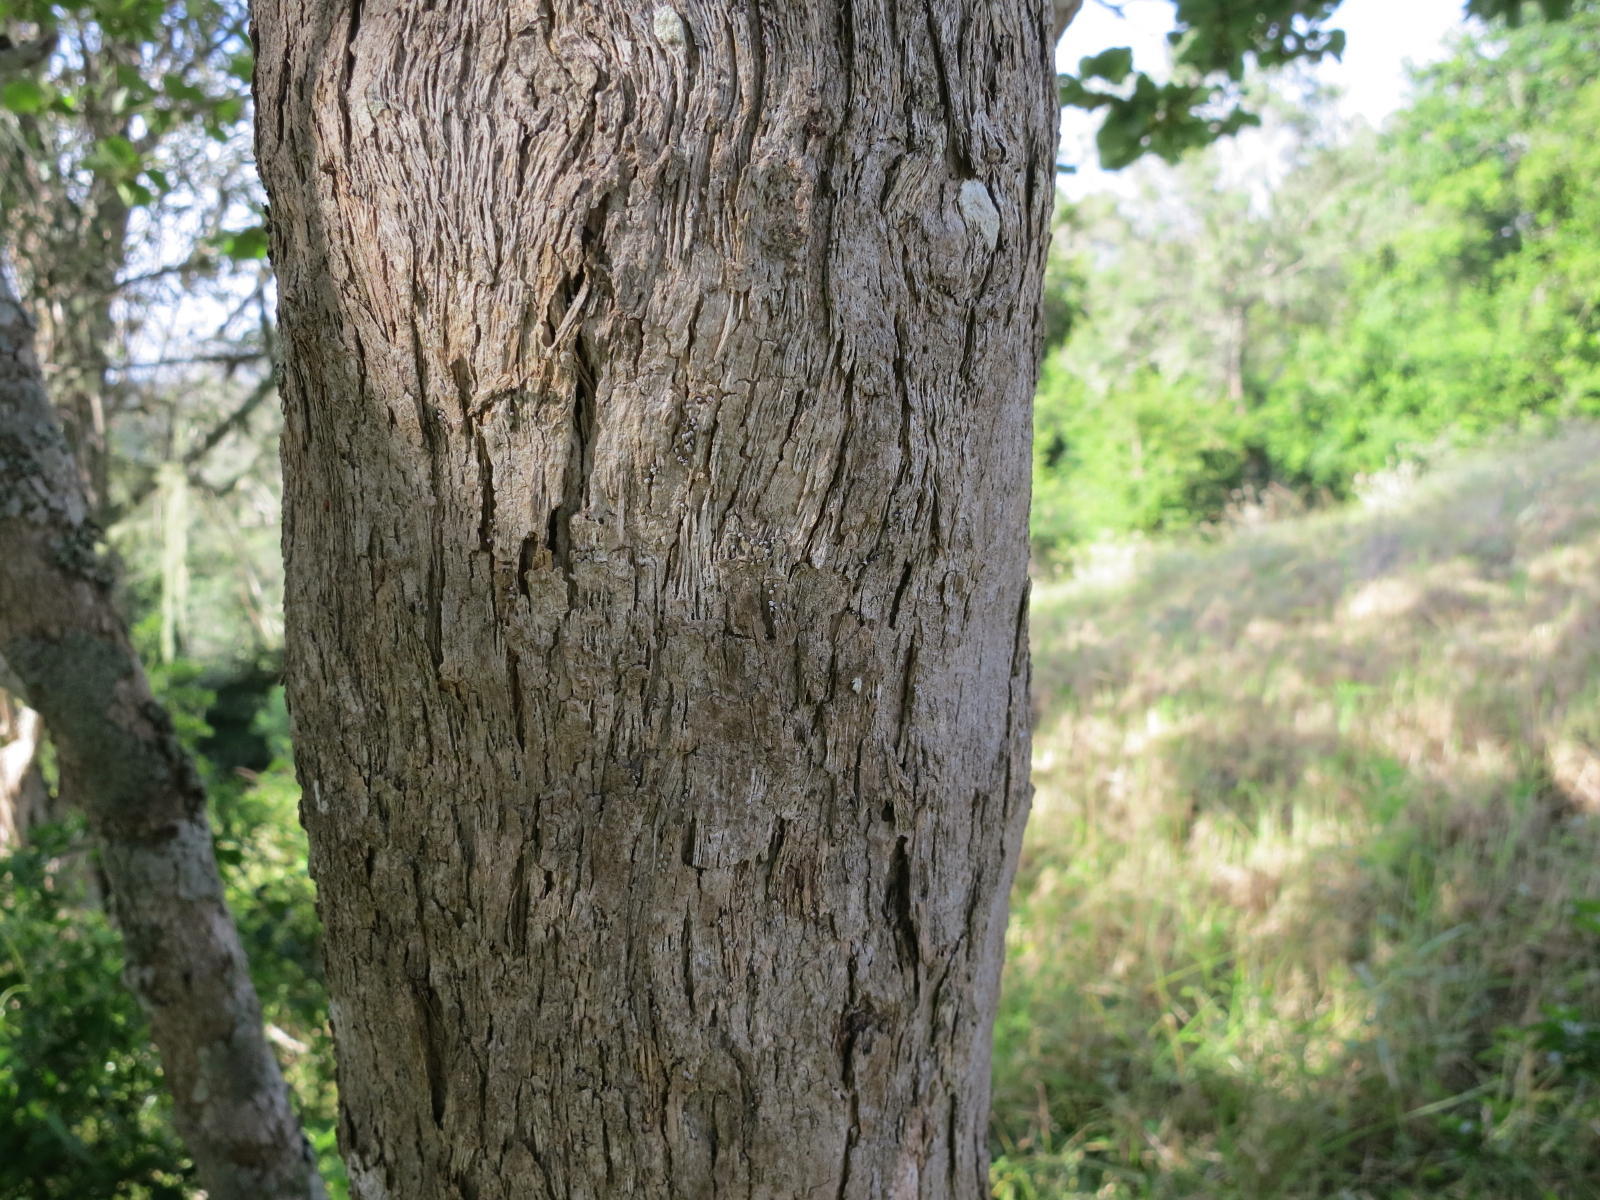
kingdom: Plantae
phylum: Tracheophyta
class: Magnoliopsida
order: Malpighiales
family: Salicaceae
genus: Trimeria
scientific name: Trimeria grandifolia
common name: Wild mulberry
